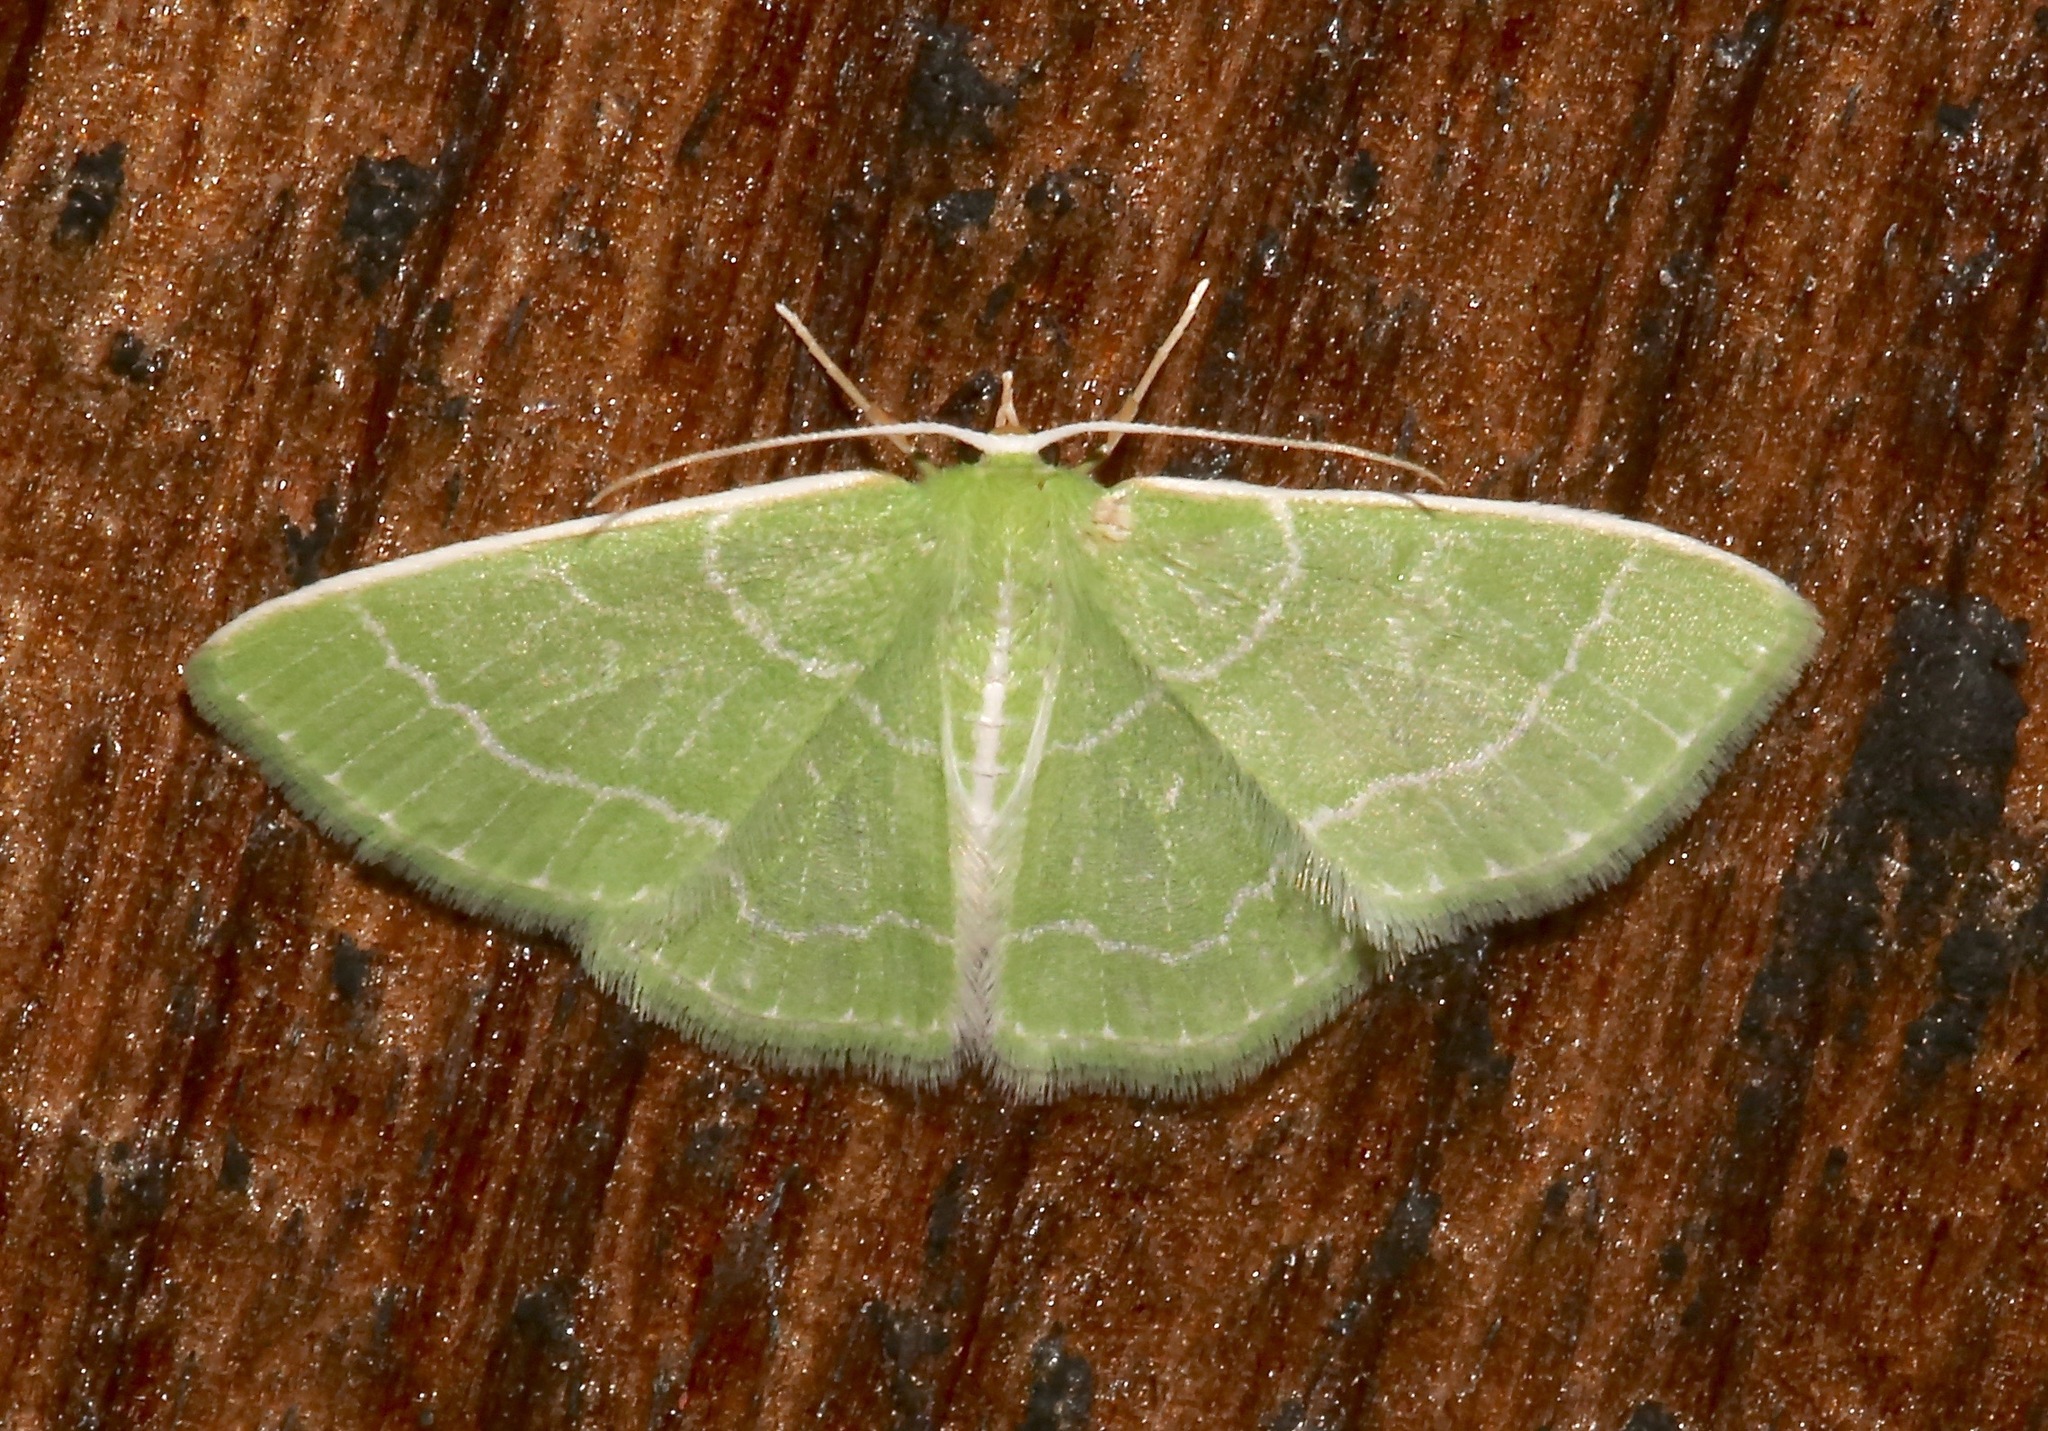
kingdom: Animalia
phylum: Arthropoda
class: Insecta
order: Lepidoptera
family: Geometridae
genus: Synchlora
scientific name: Synchlora aerata
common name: Wavy-lined emerald
